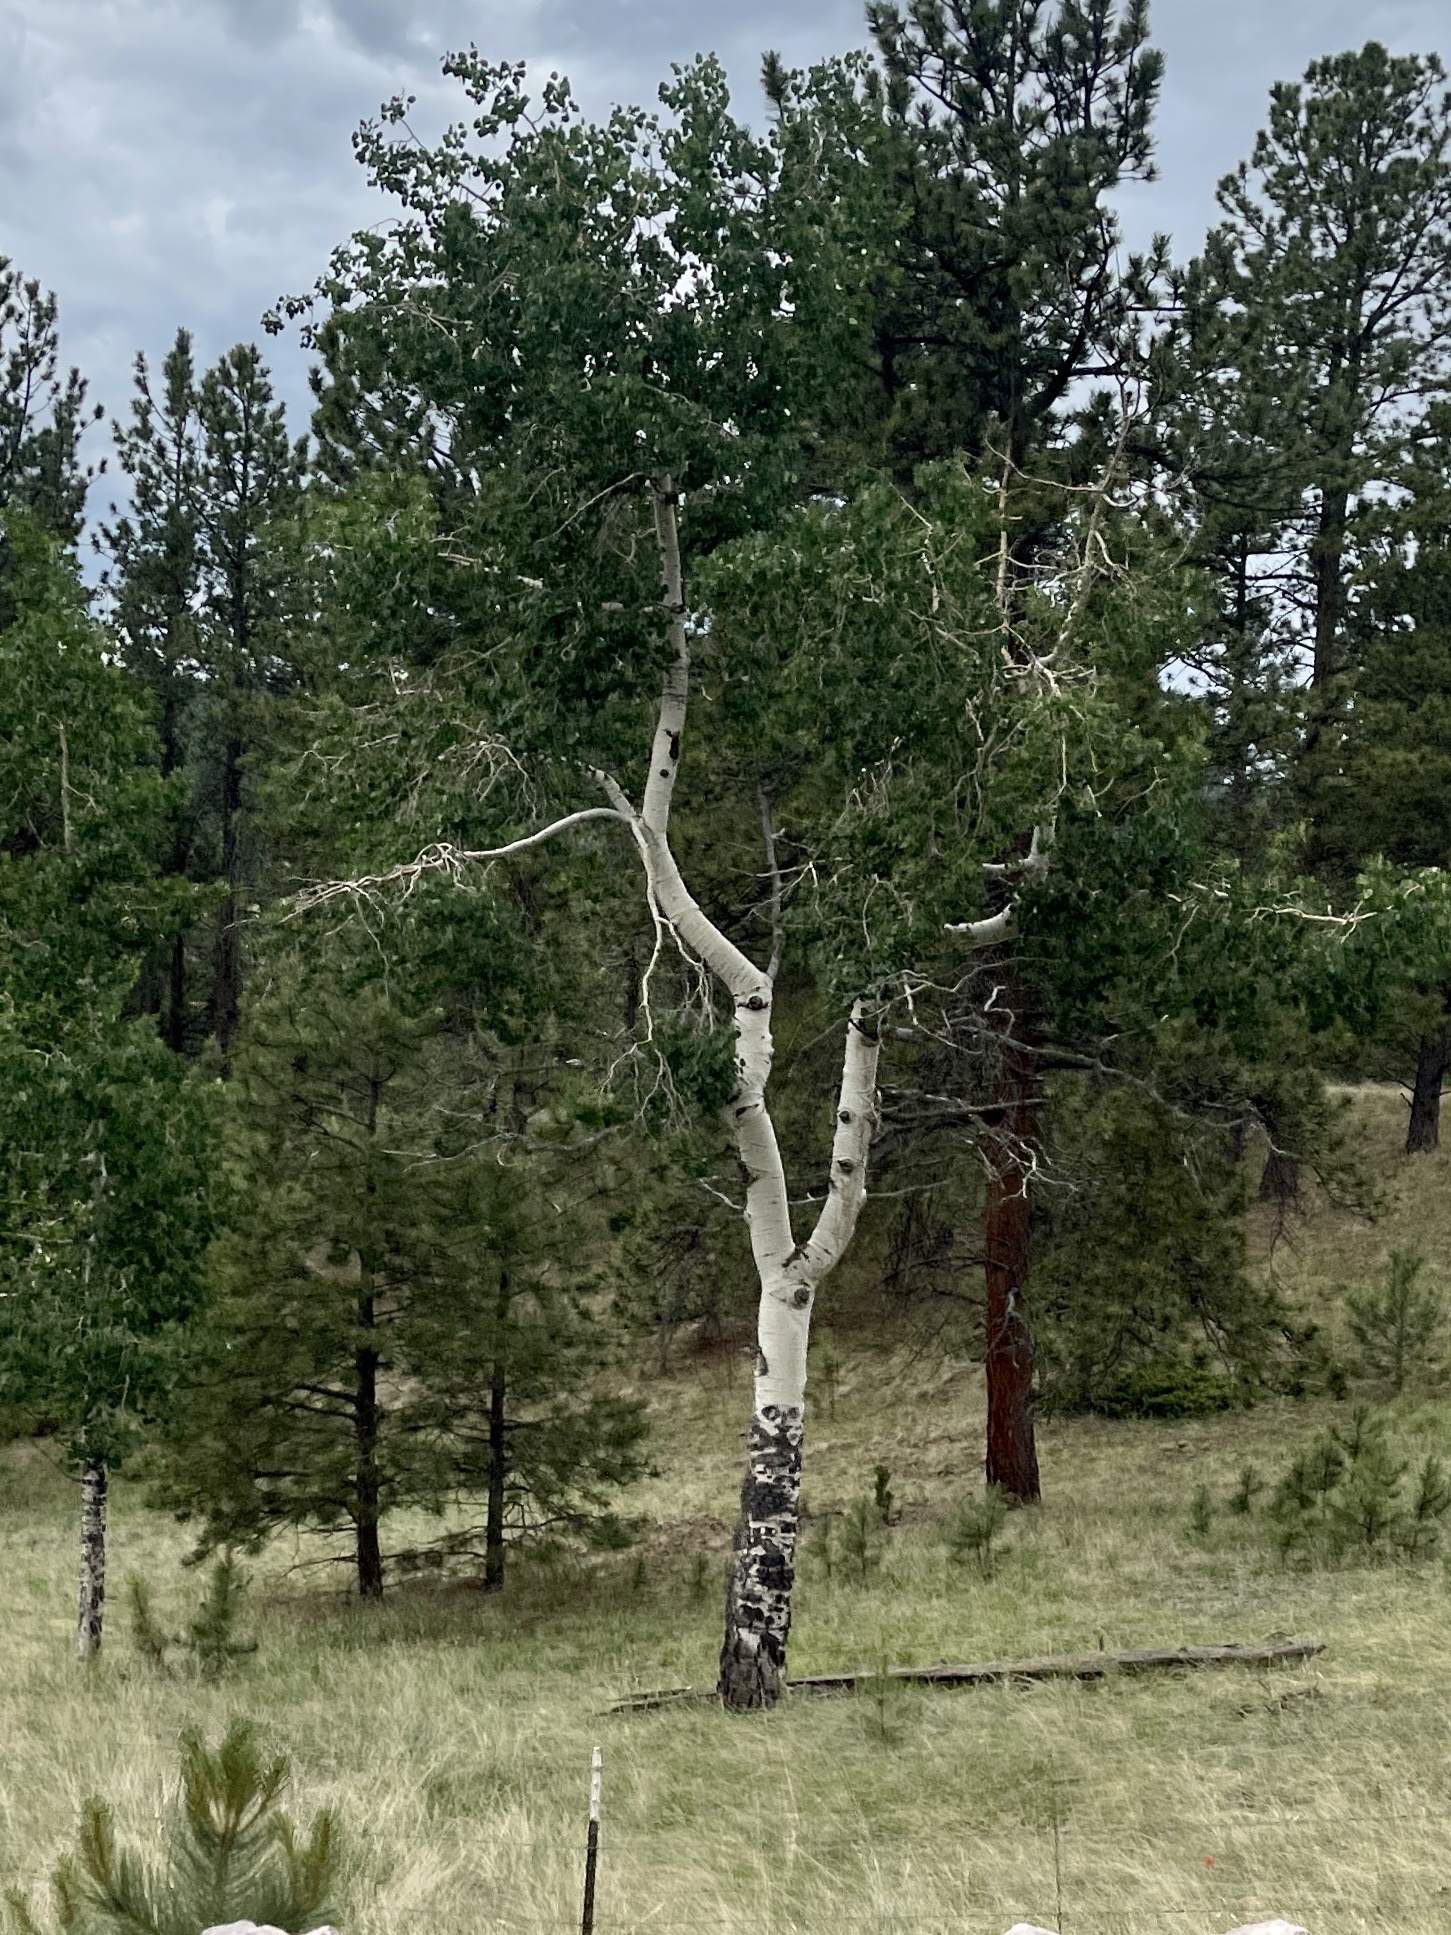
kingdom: Plantae
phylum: Tracheophyta
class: Magnoliopsida
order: Malpighiales
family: Salicaceae
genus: Populus
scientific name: Populus tremuloides
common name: Quaking aspen
